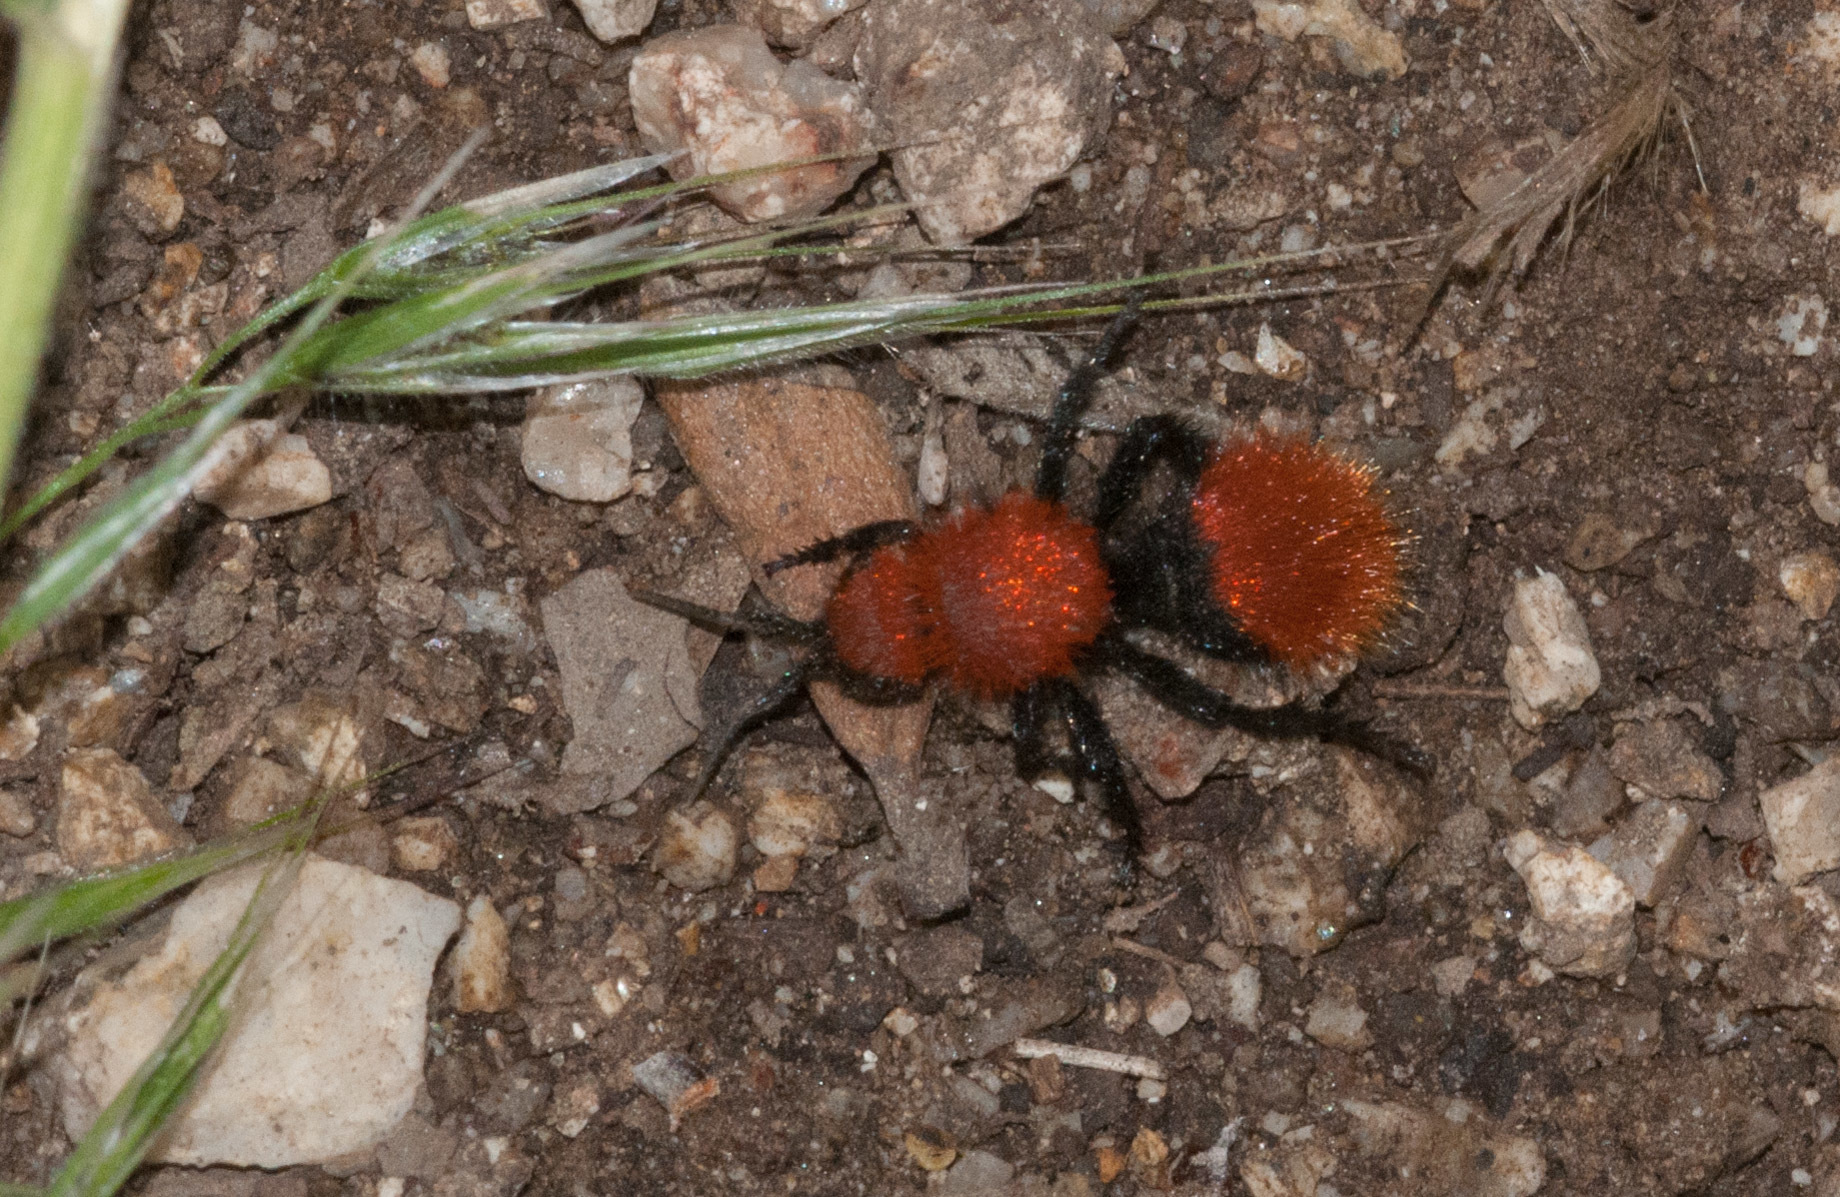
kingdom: Animalia
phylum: Arthropoda
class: Insecta
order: Hymenoptera
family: Mutillidae
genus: Dasymutilla
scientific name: Dasymutilla vestita
